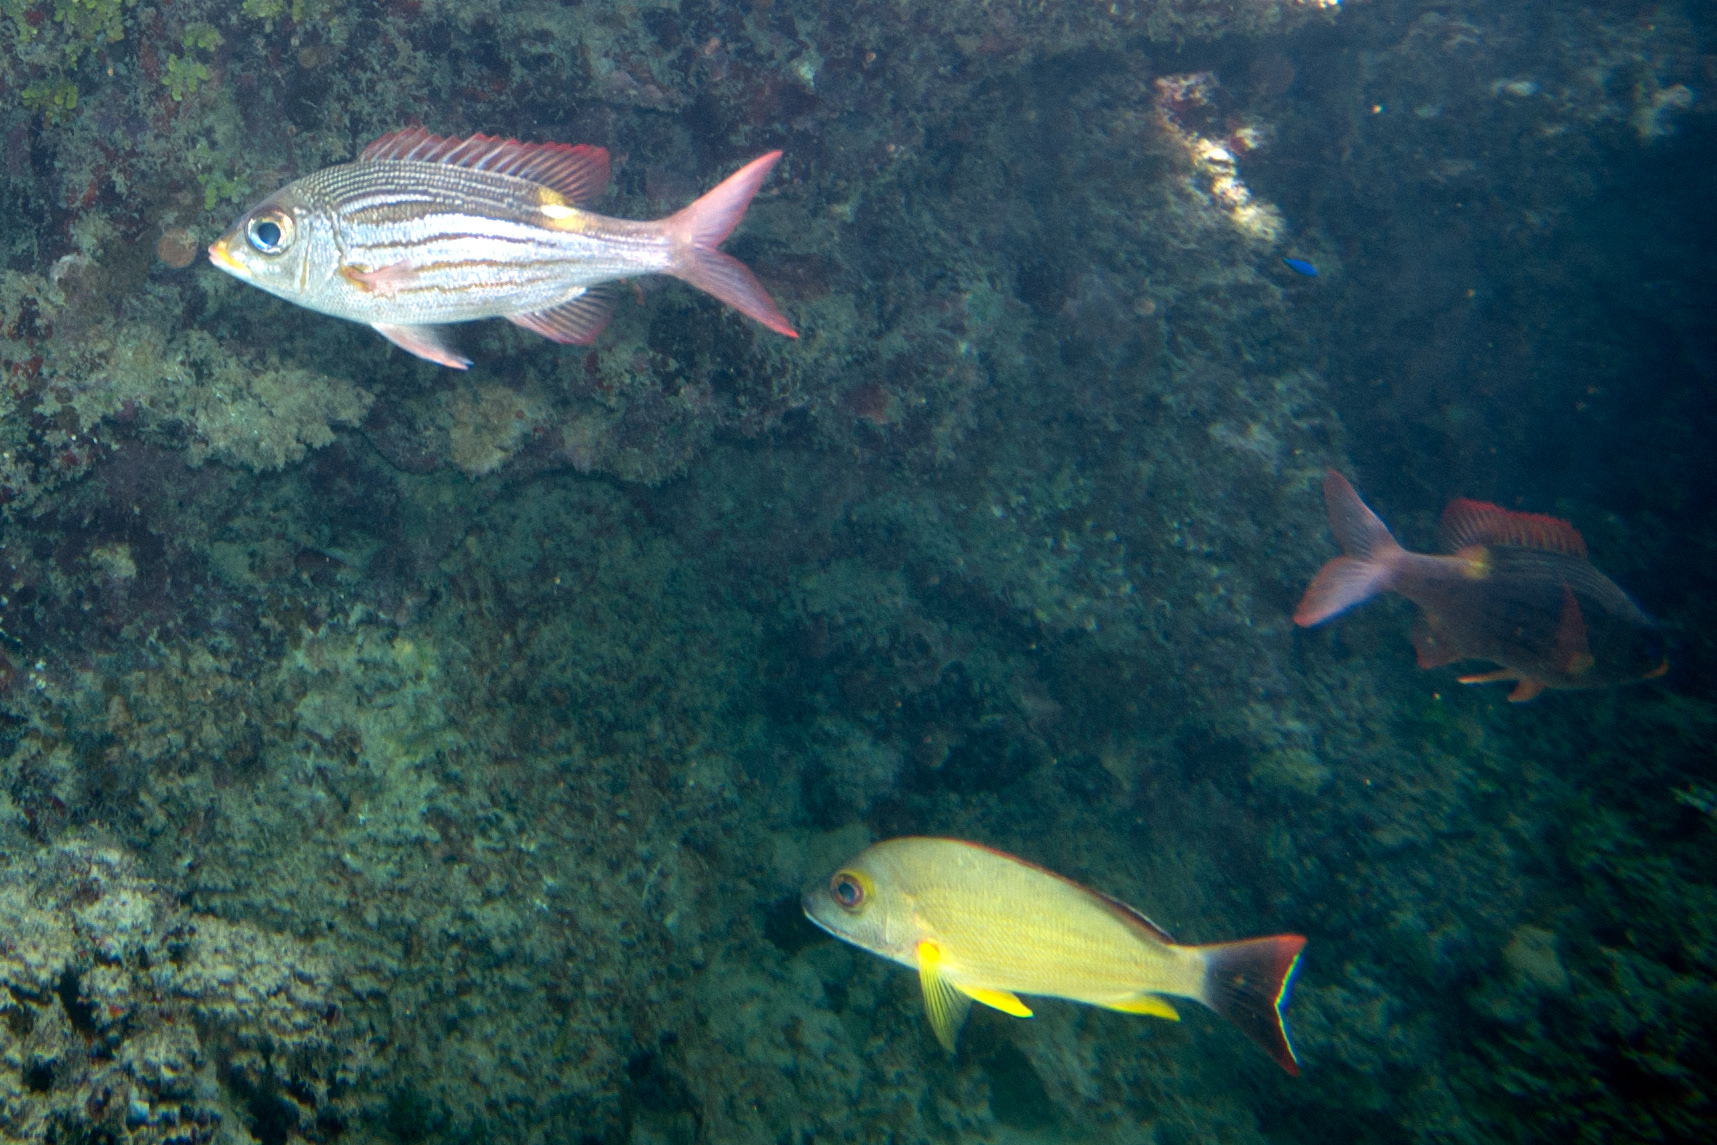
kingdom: Animalia
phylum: Chordata
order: Perciformes
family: Lethrinidae
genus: Gnathodentex
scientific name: Gnathodentex aureolineatus
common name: Gold-lined sea bream
